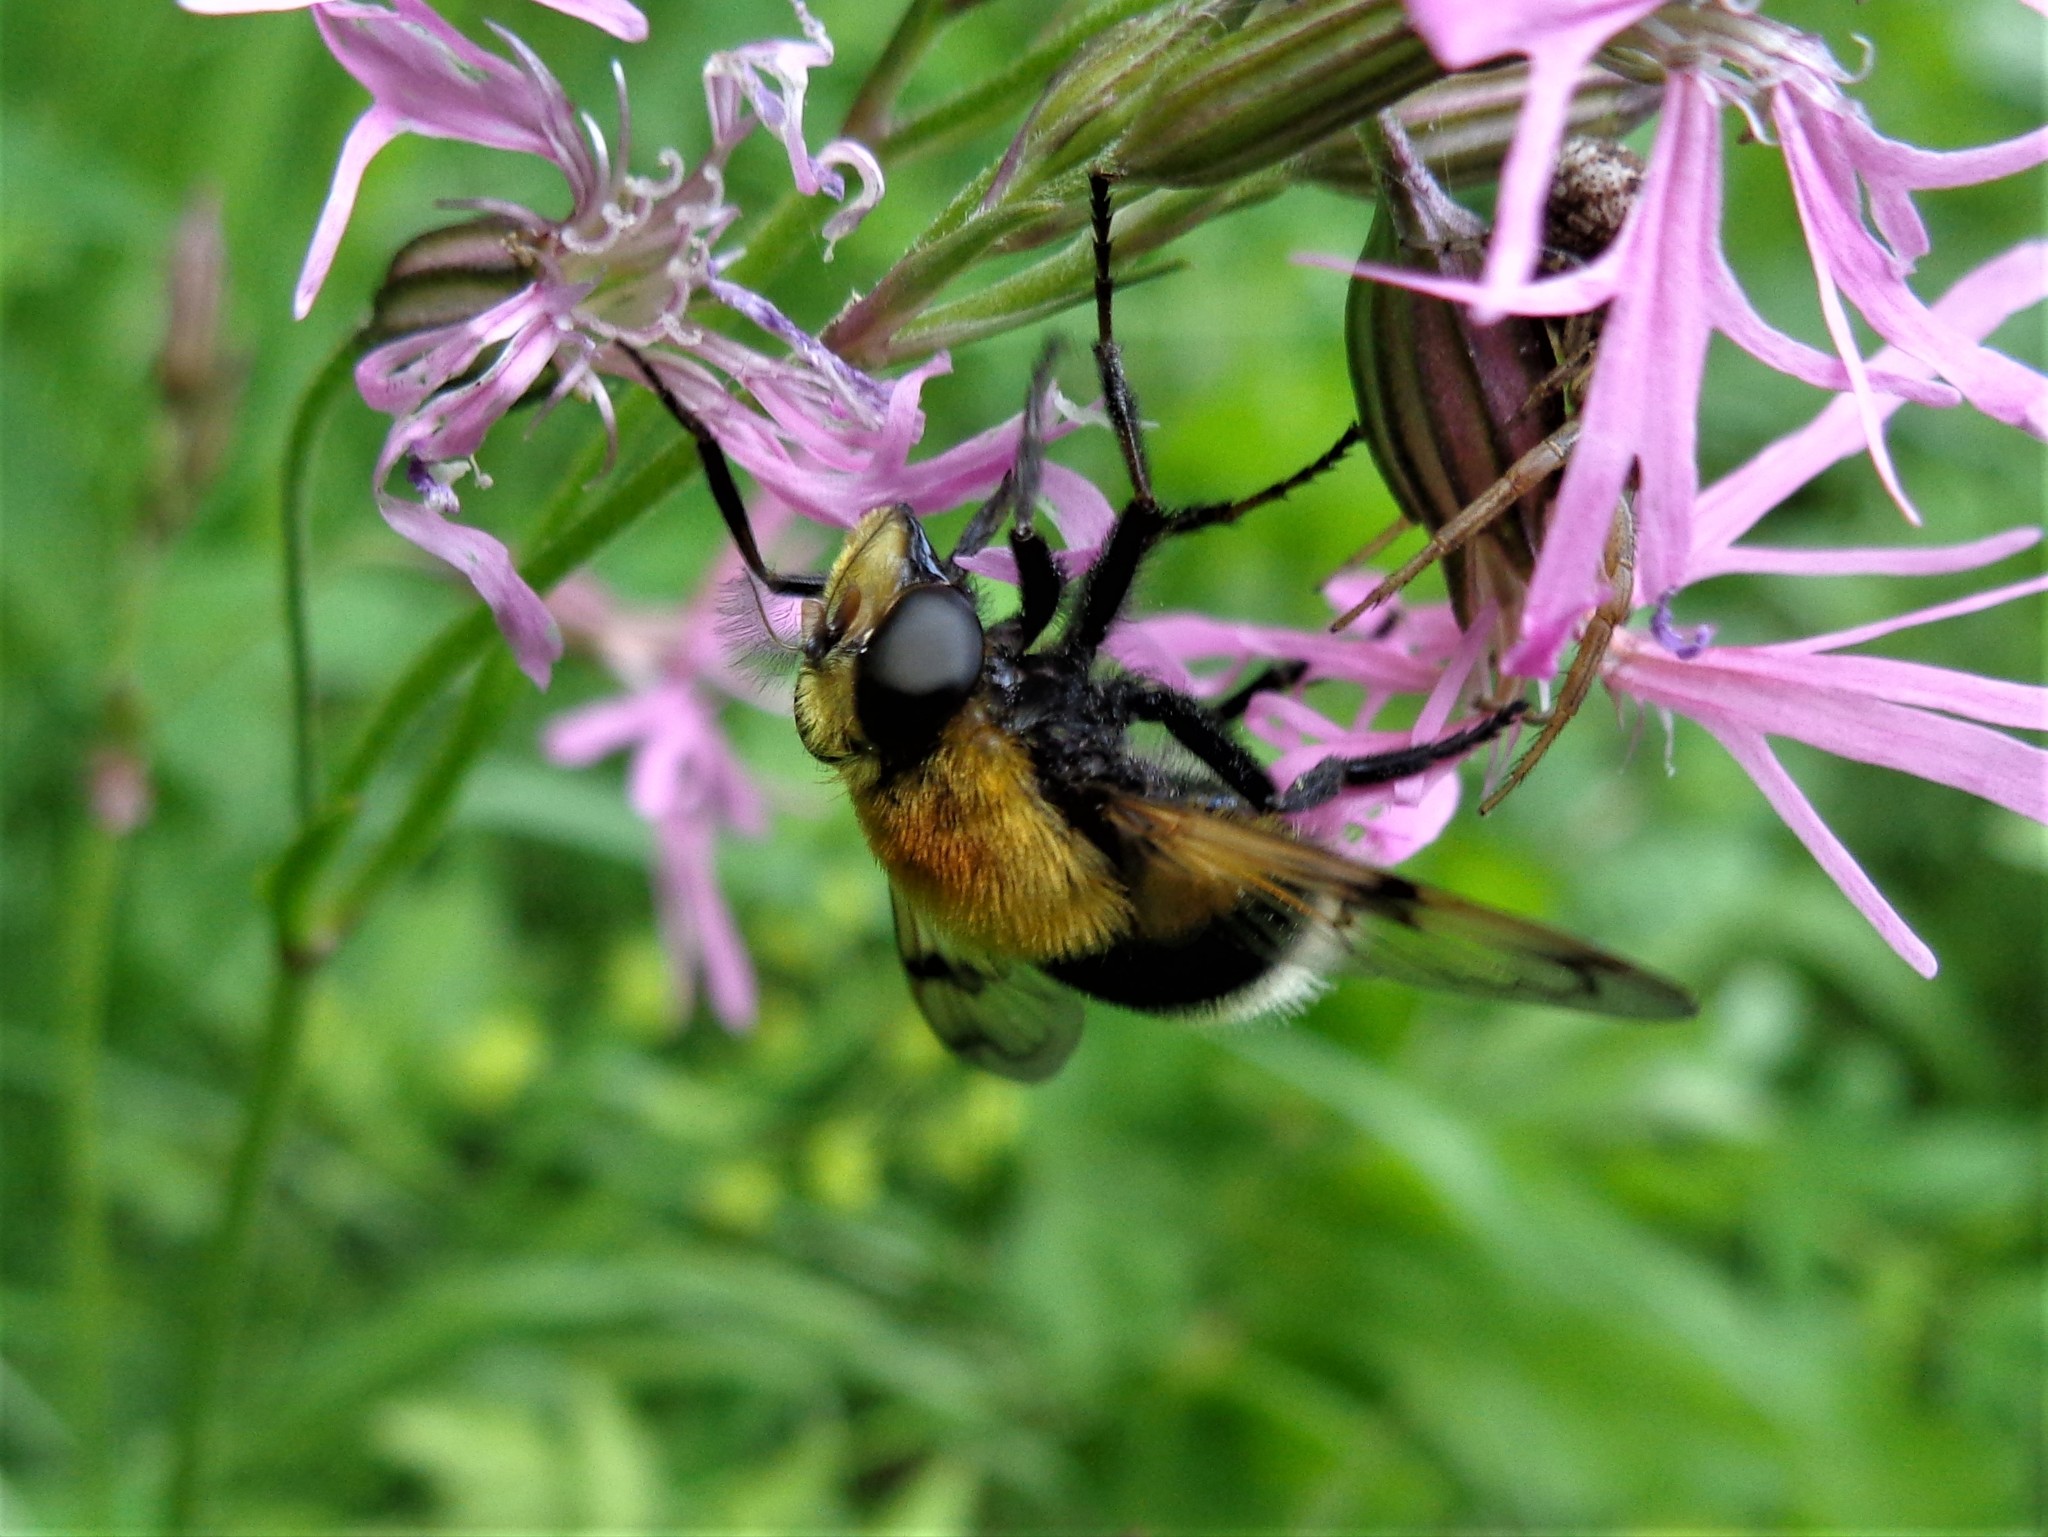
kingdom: Animalia
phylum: Arthropoda
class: Insecta
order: Diptera
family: Syrphidae
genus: Volucella
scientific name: Volucella bombylans
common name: Bumble bee hover fly
